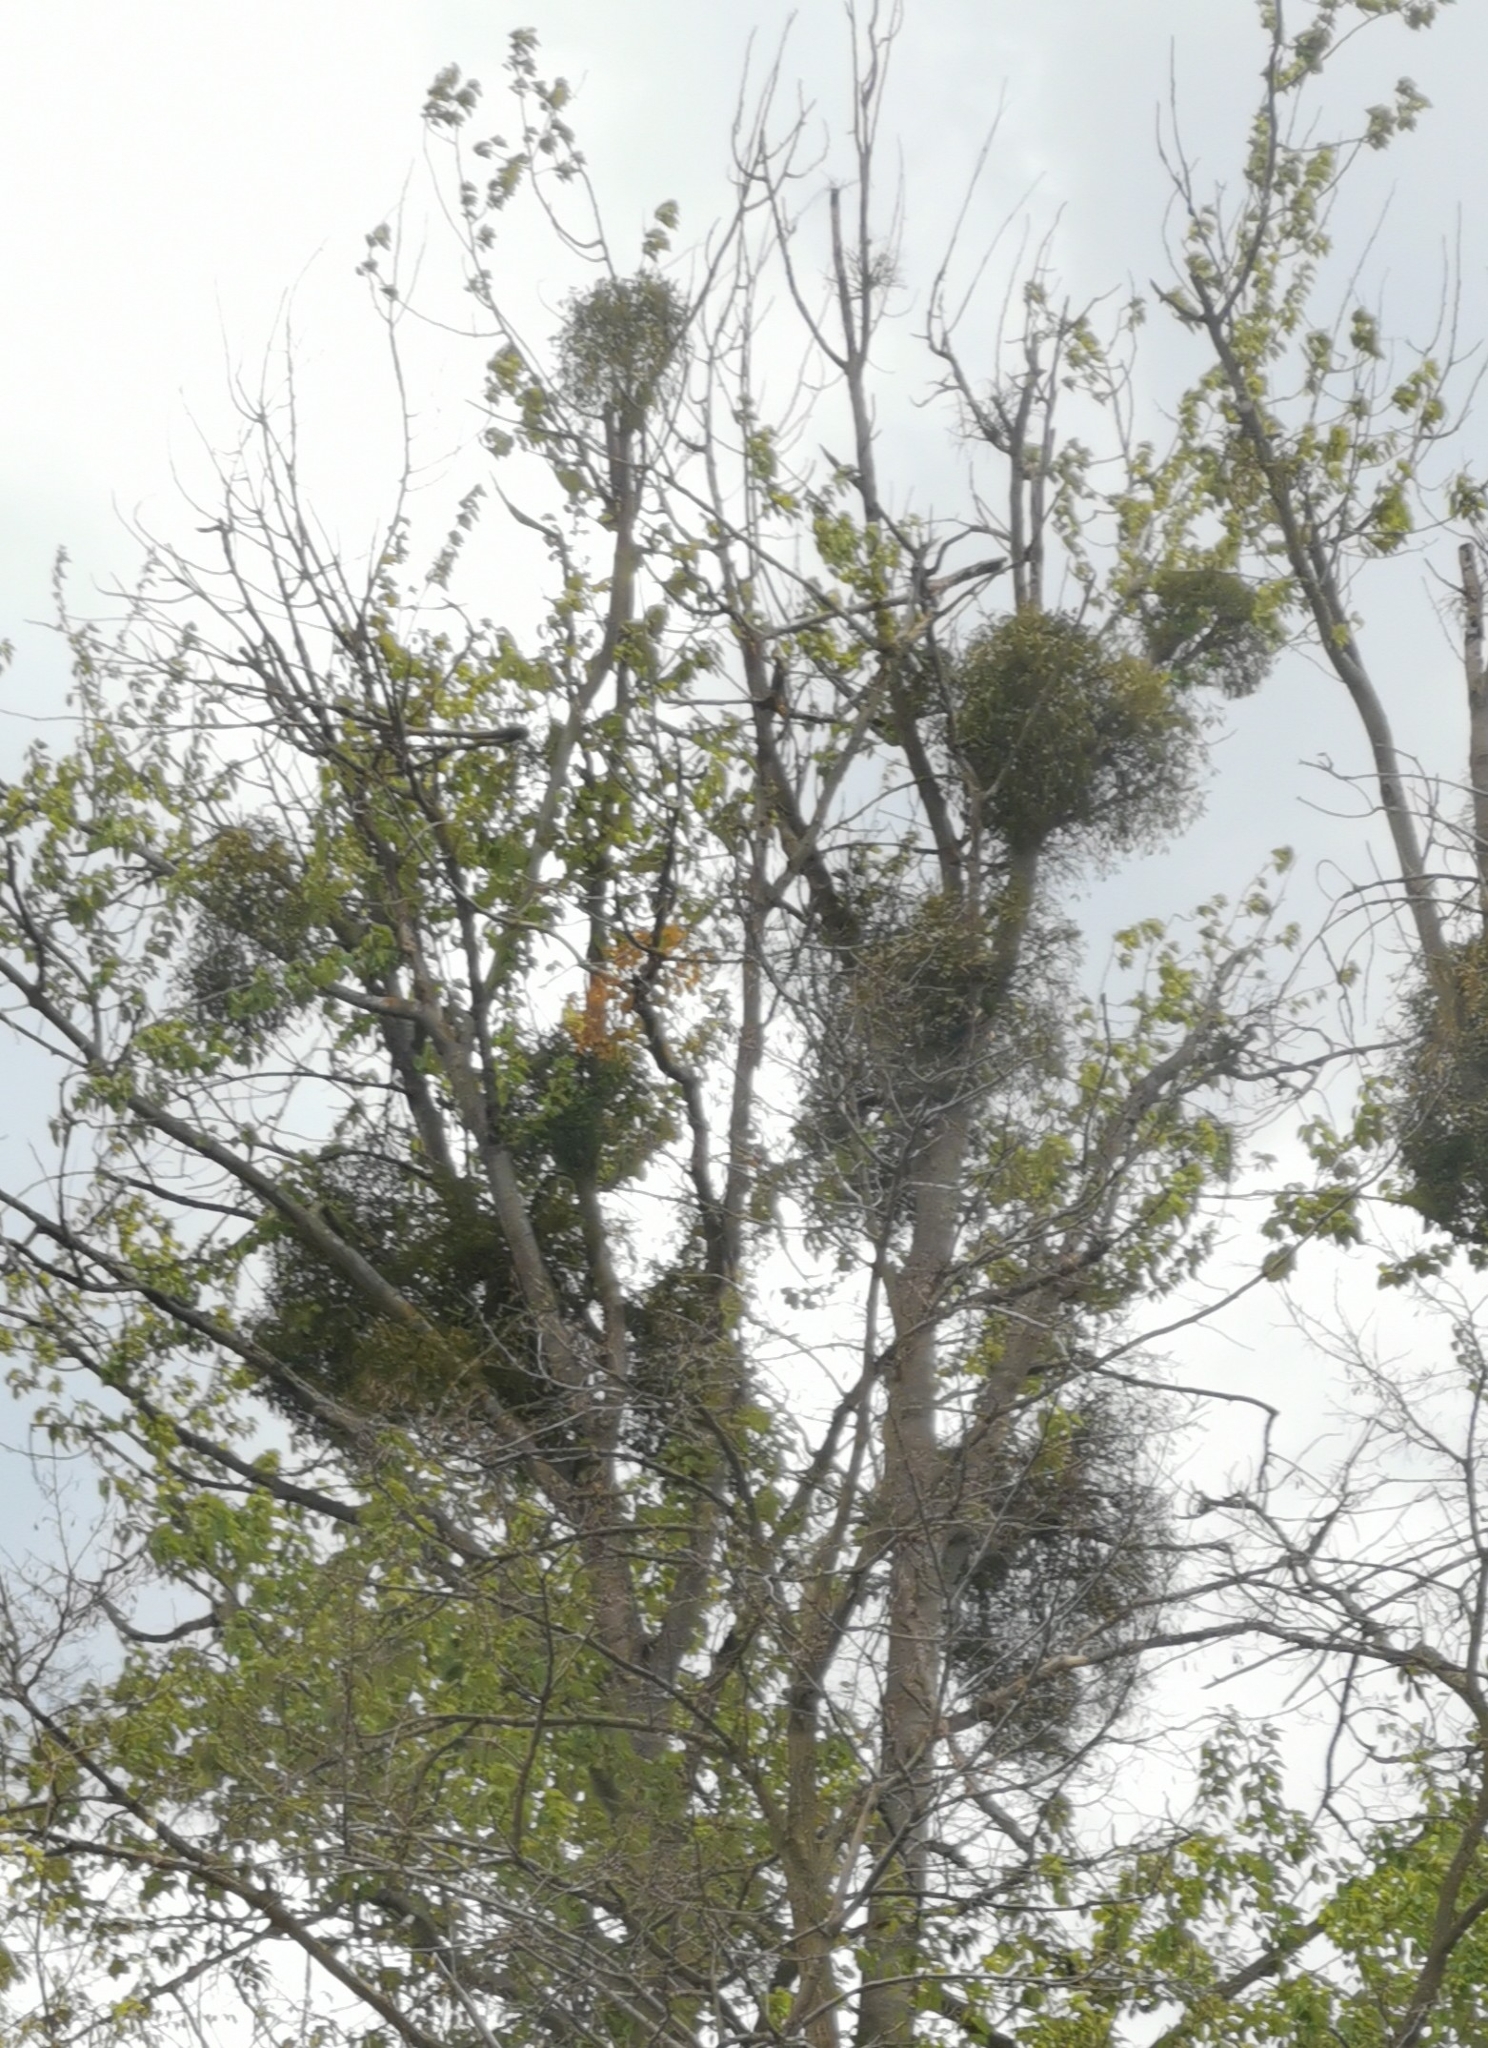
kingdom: Plantae
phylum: Tracheophyta
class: Magnoliopsida
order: Santalales
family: Viscaceae
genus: Viscum
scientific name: Viscum album
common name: Mistletoe
